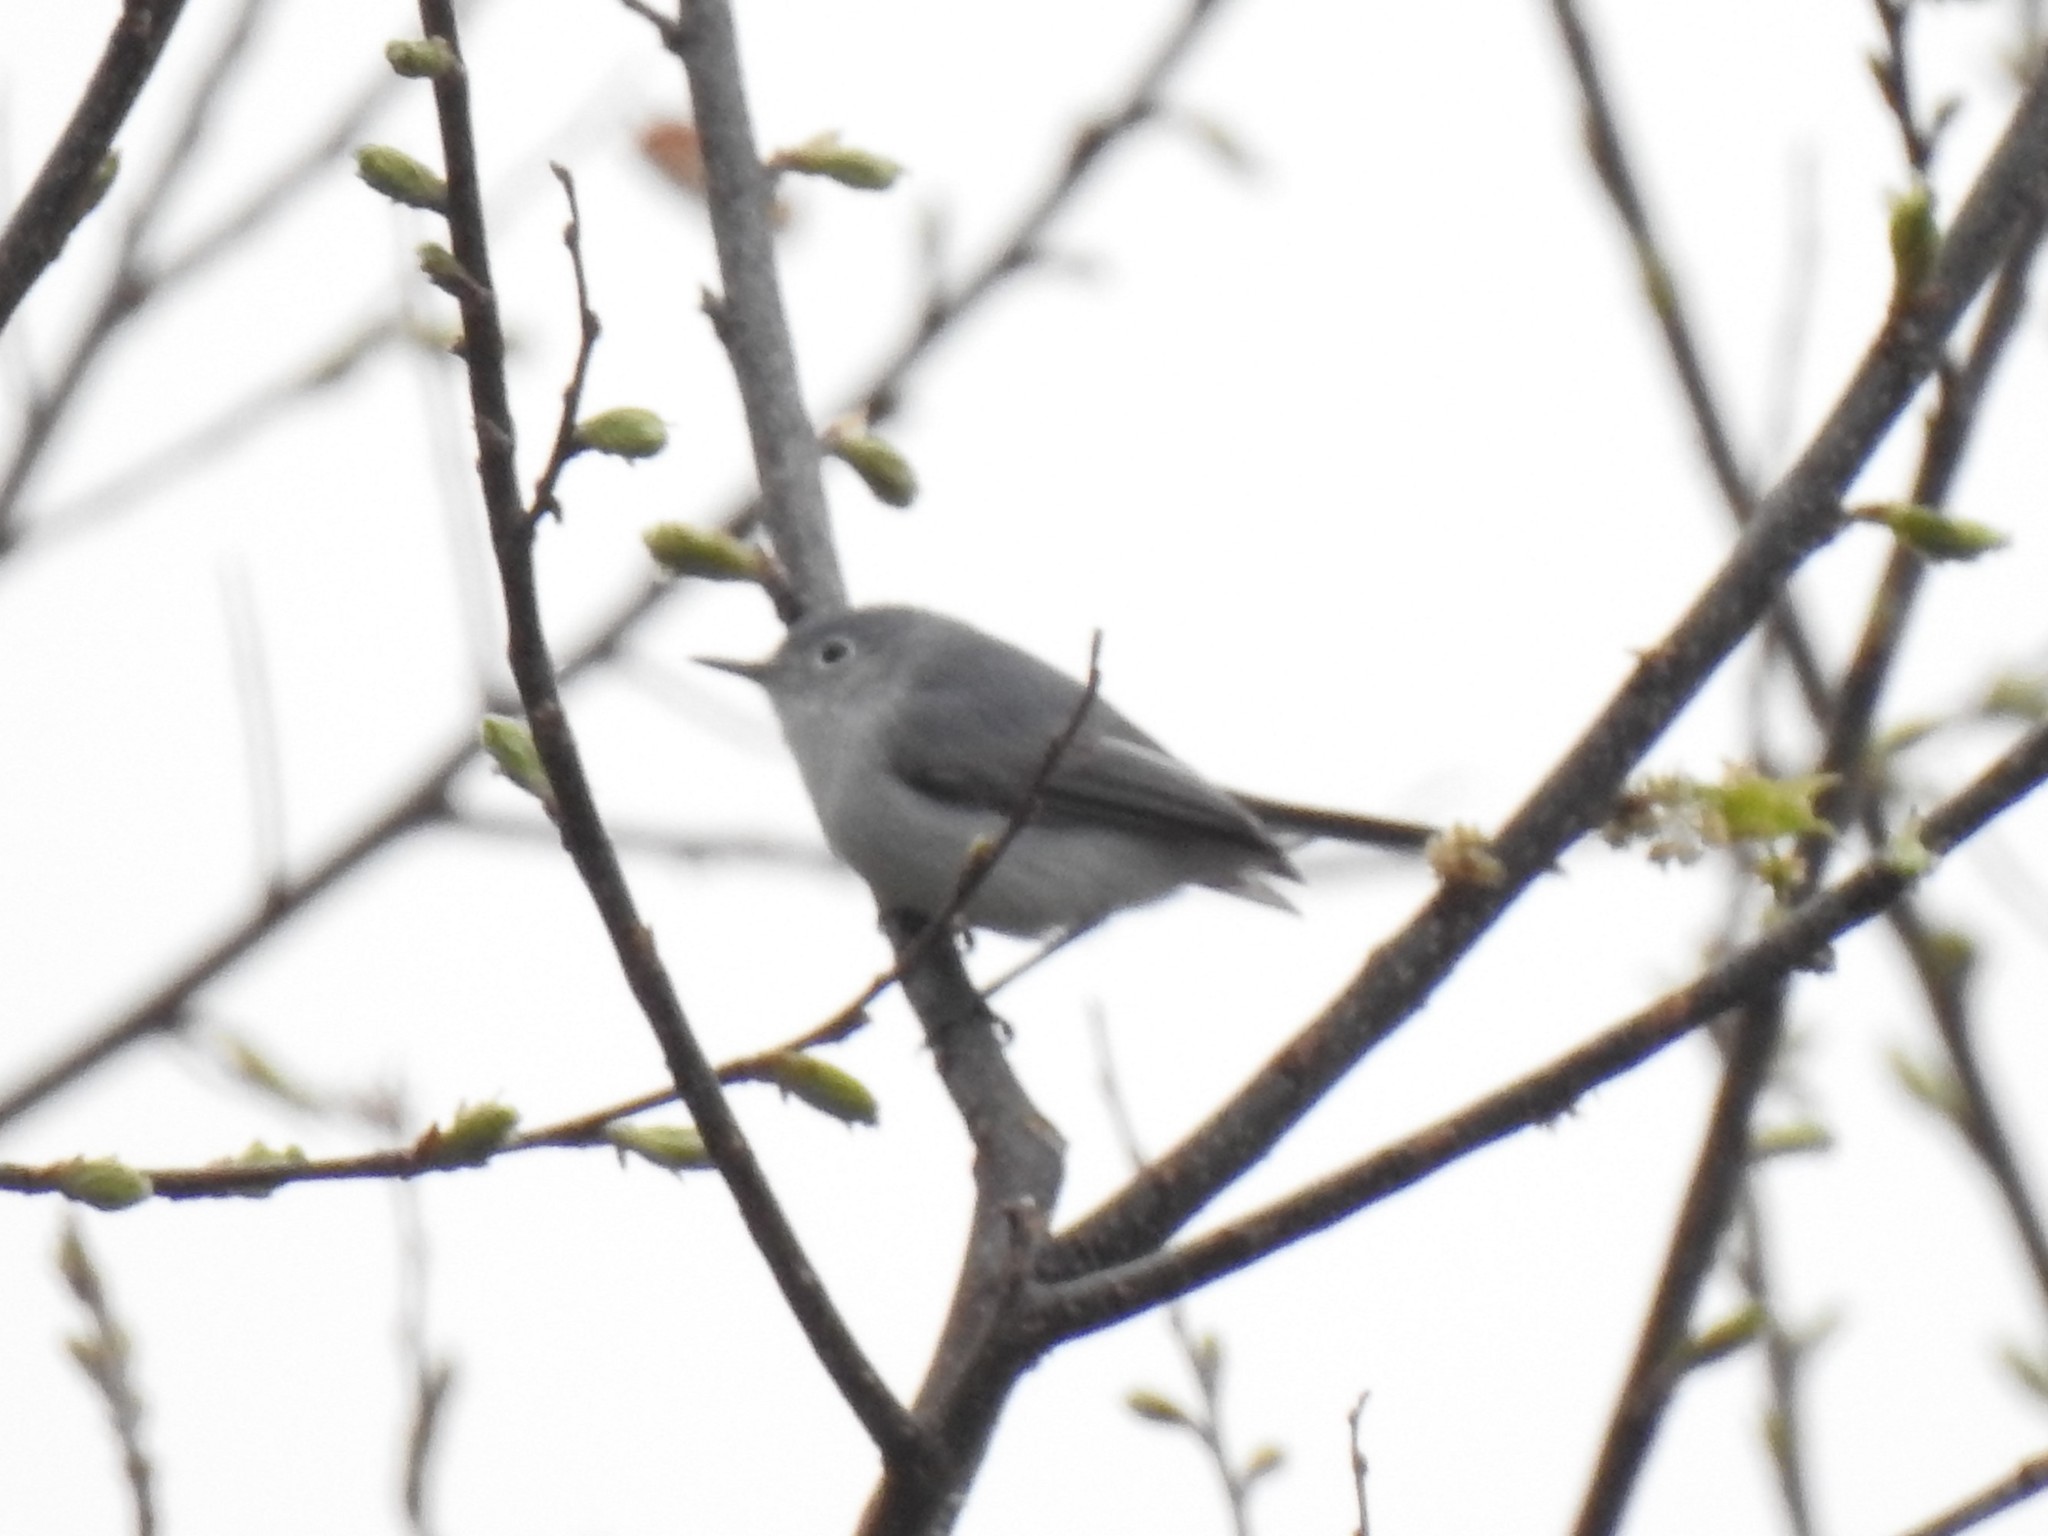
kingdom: Animalia
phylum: Chordata
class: Aves
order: Passeriformes
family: Polioptilidae
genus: Polioptila
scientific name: Polioptila caerulea
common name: Blue-gray gnatcatcher
